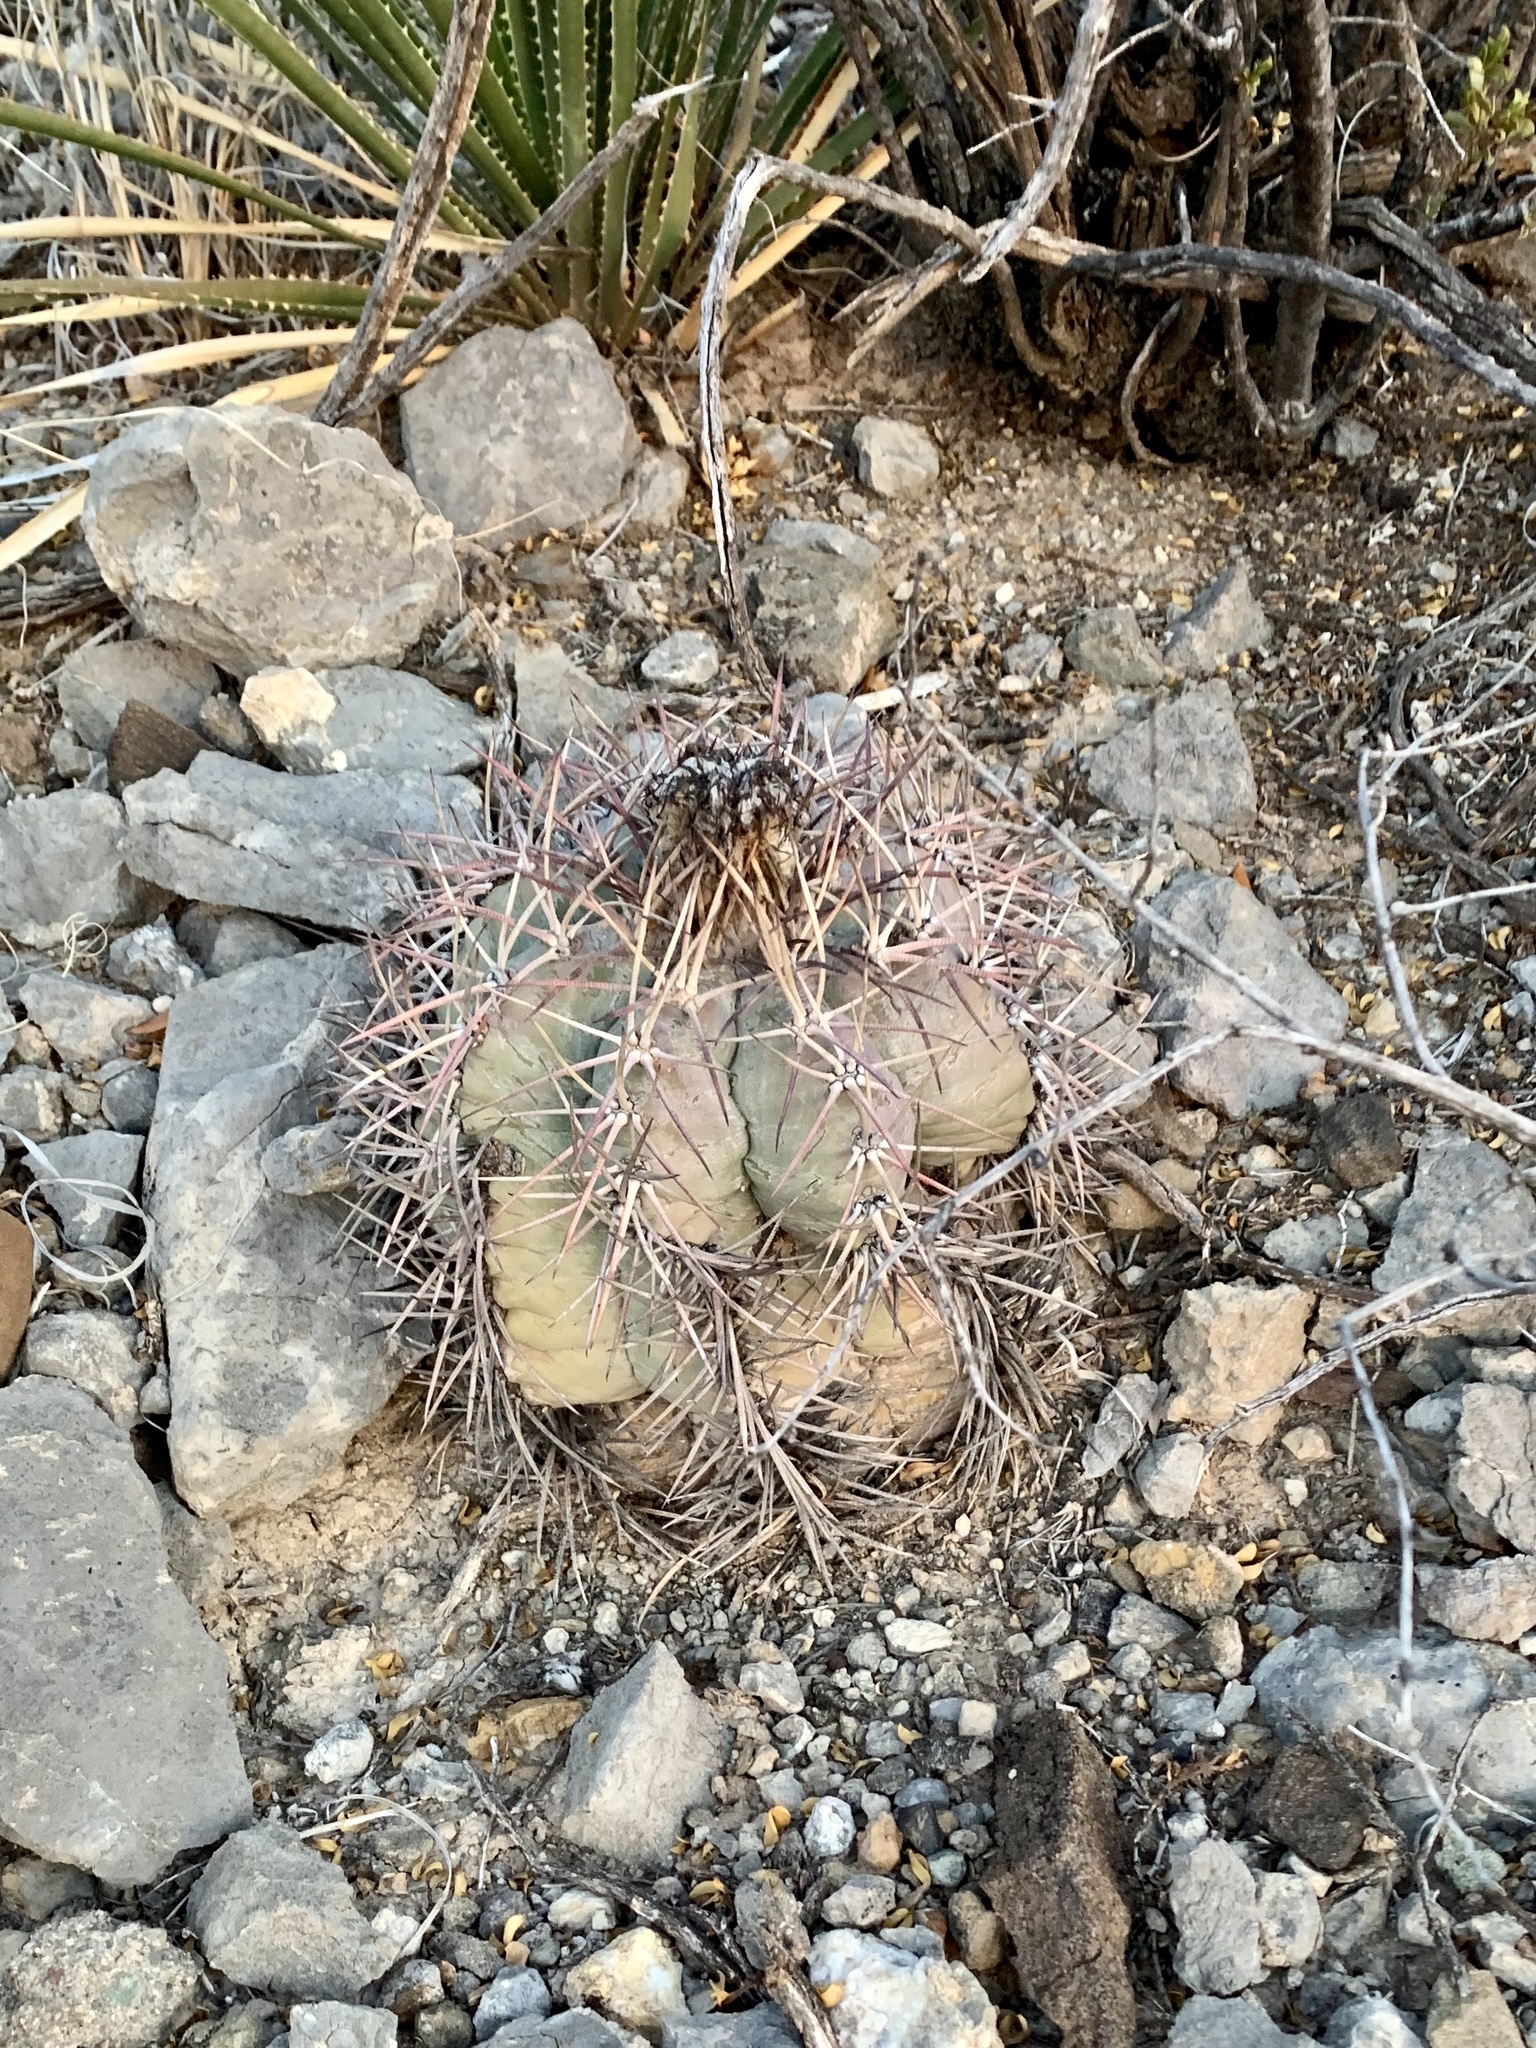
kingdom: Plantae
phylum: Tracheophyta
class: Magnoliopsida
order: Caryophyllales
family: Cactaceae
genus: Echinocactus
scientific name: Echinocactus horizonthalonius
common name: Devilshead
